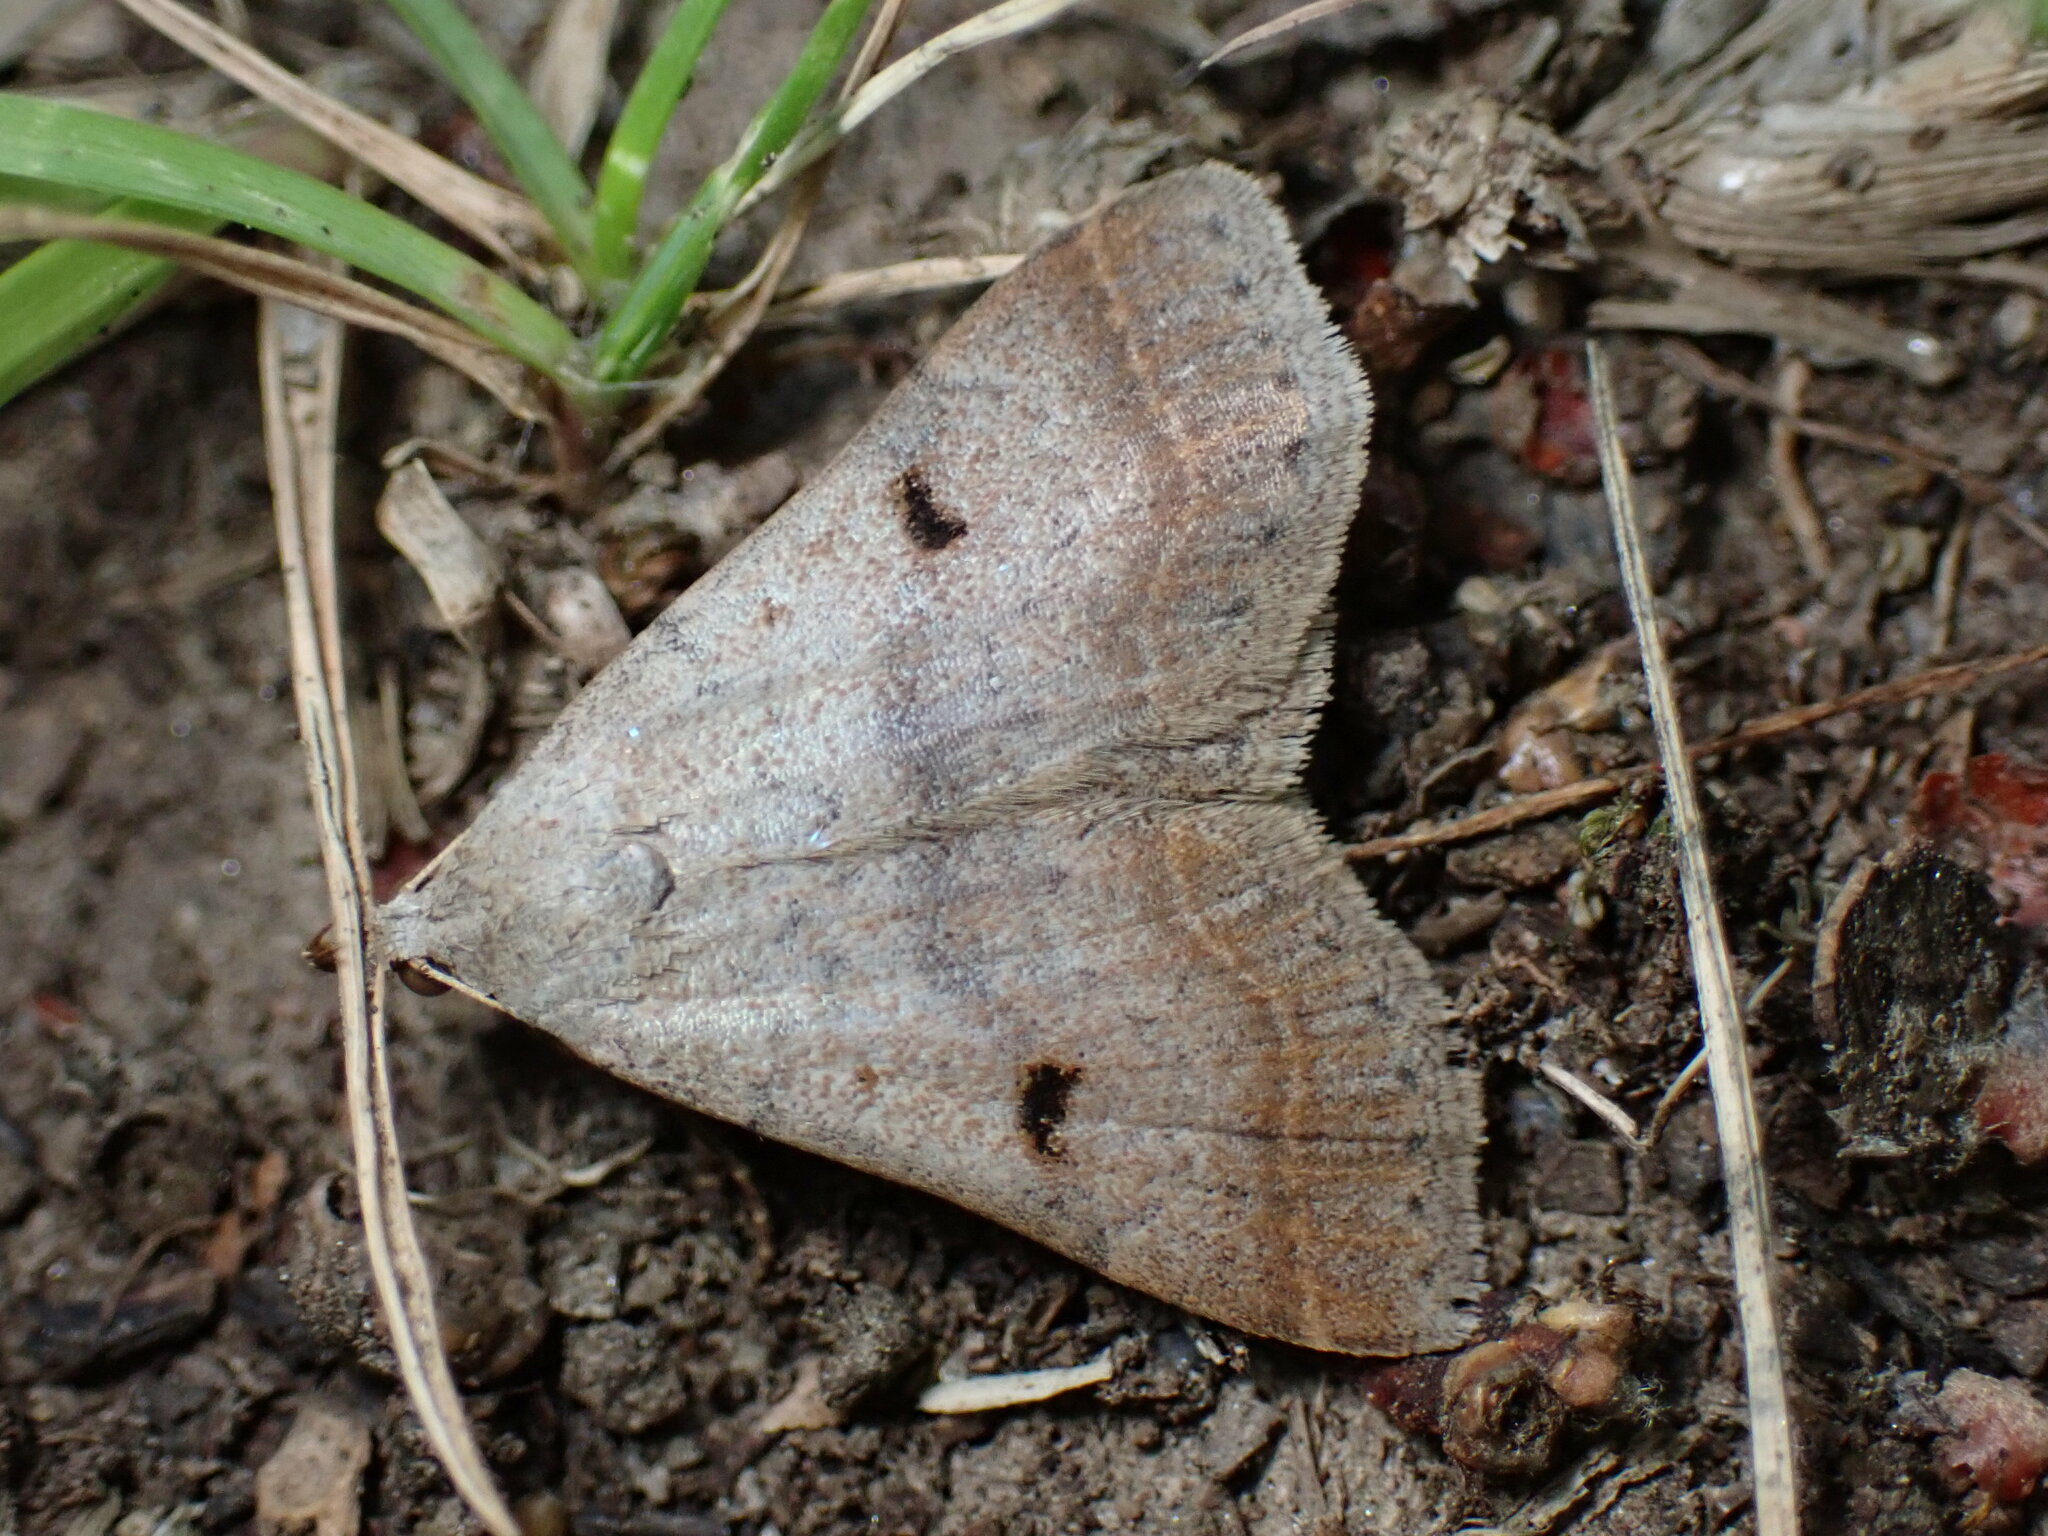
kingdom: Animalia
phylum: Arthropoda
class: Insecta
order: Lepidoptera
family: Erebidae
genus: Bleptina
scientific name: Bleptina caradrinalis
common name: Bent-winged owlet
